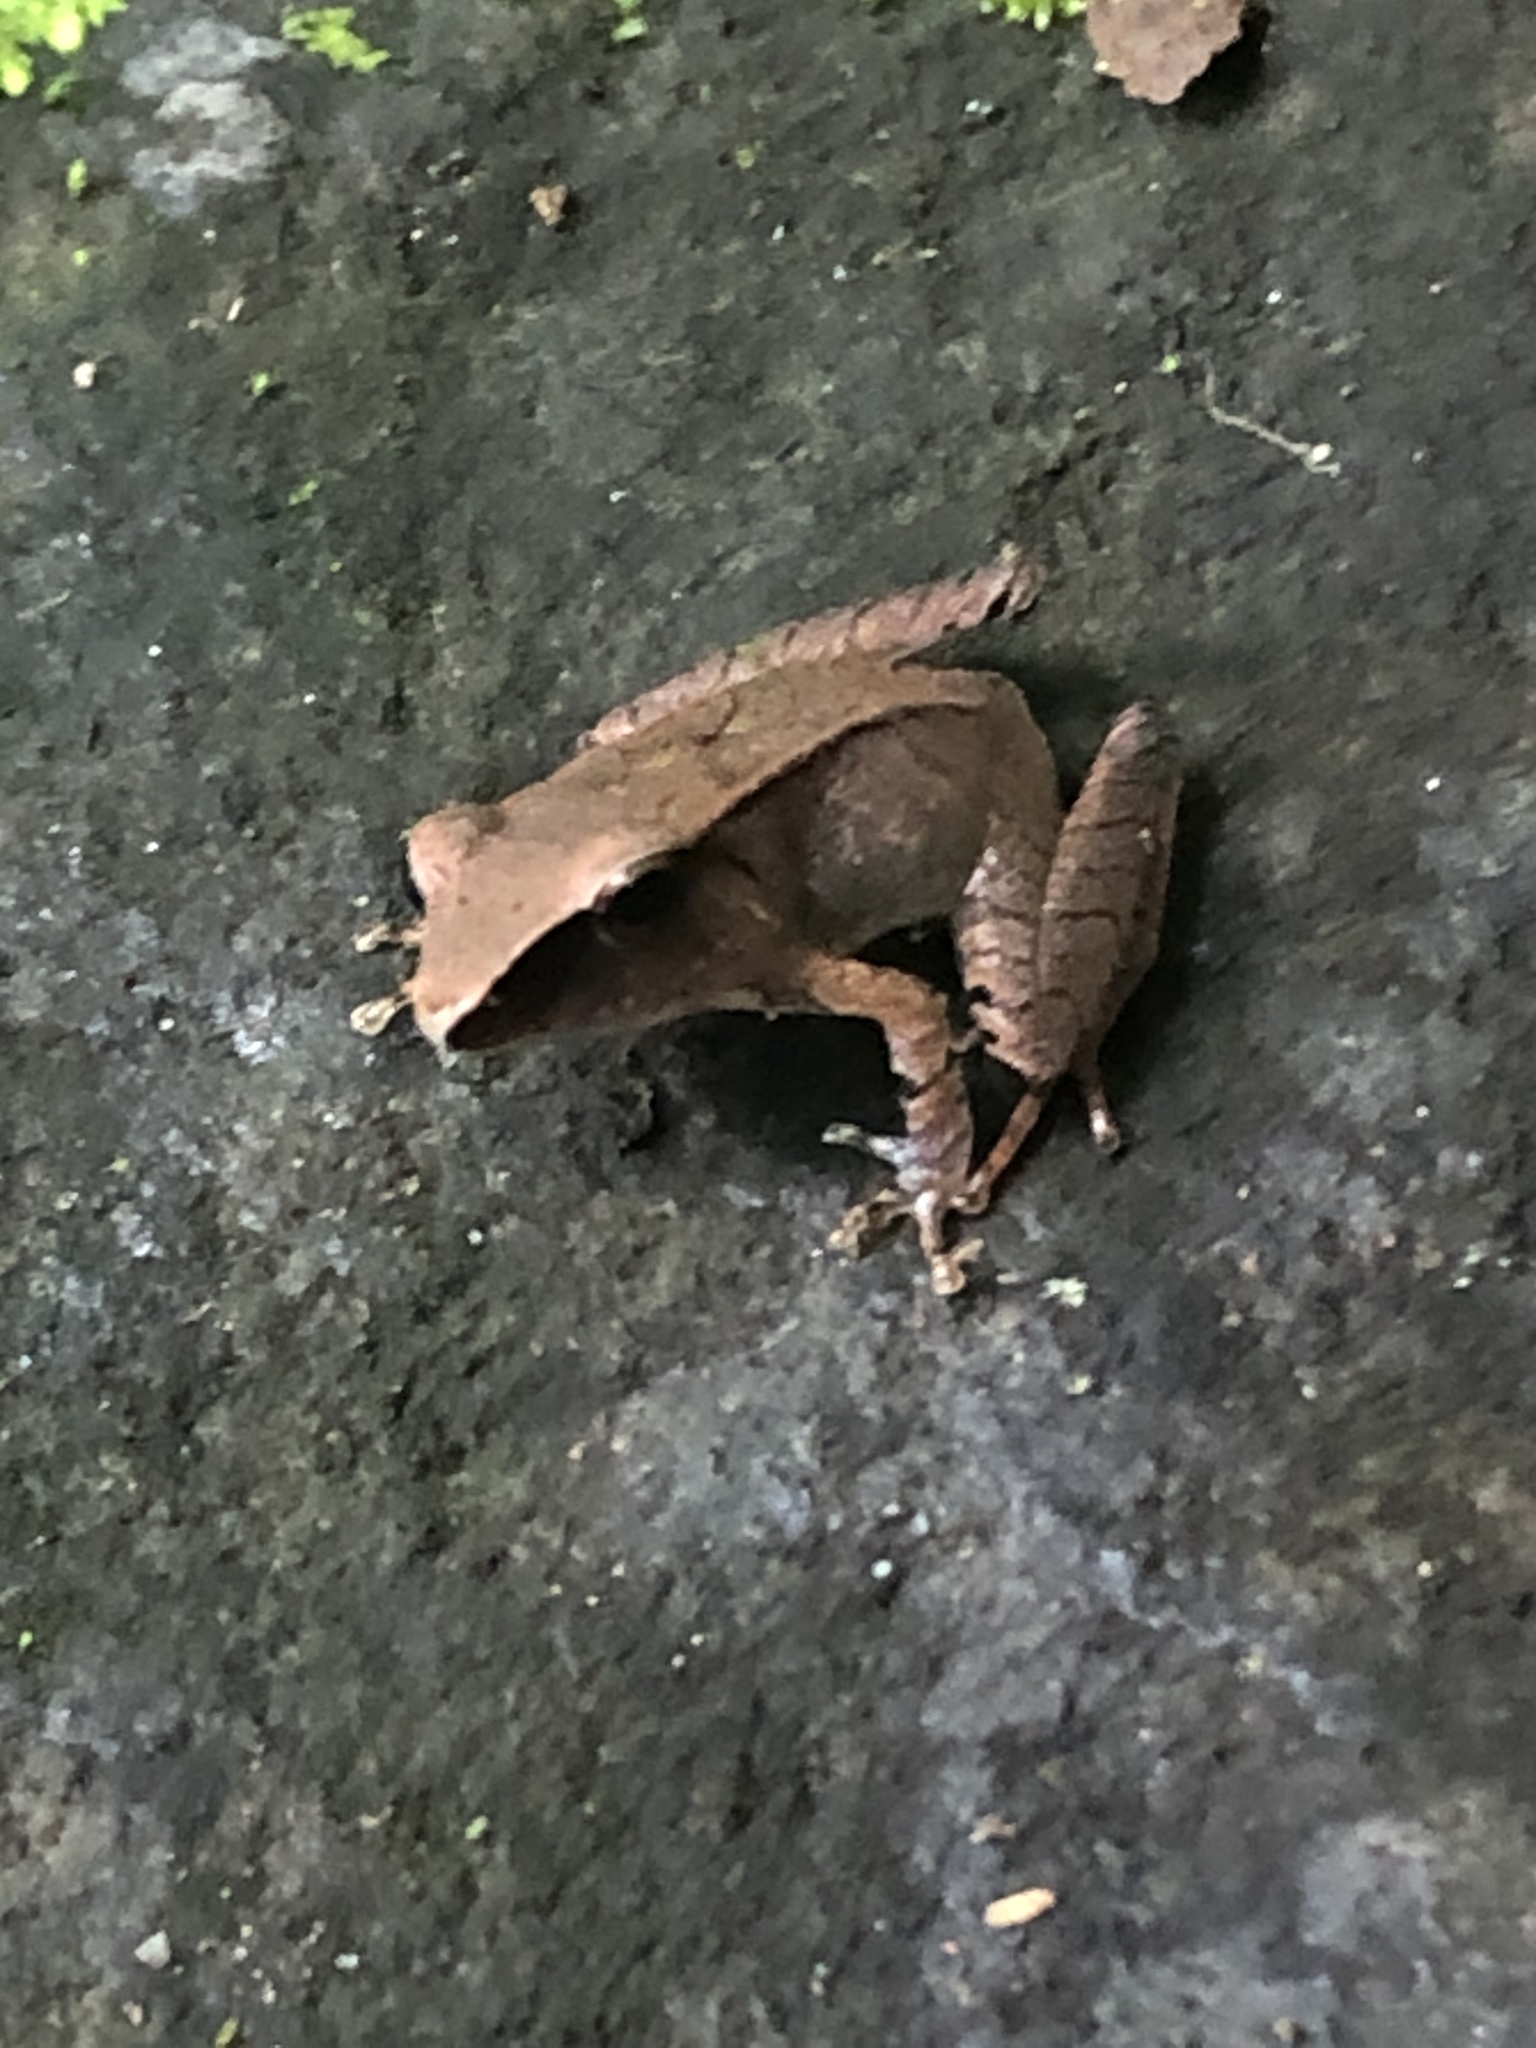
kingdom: Animalia
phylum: Chordata
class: Amphibia
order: Anura
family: Craugastoridae
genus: Pristimantis
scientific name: Pristimantis buccinator
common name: Trumpeter robber frog
